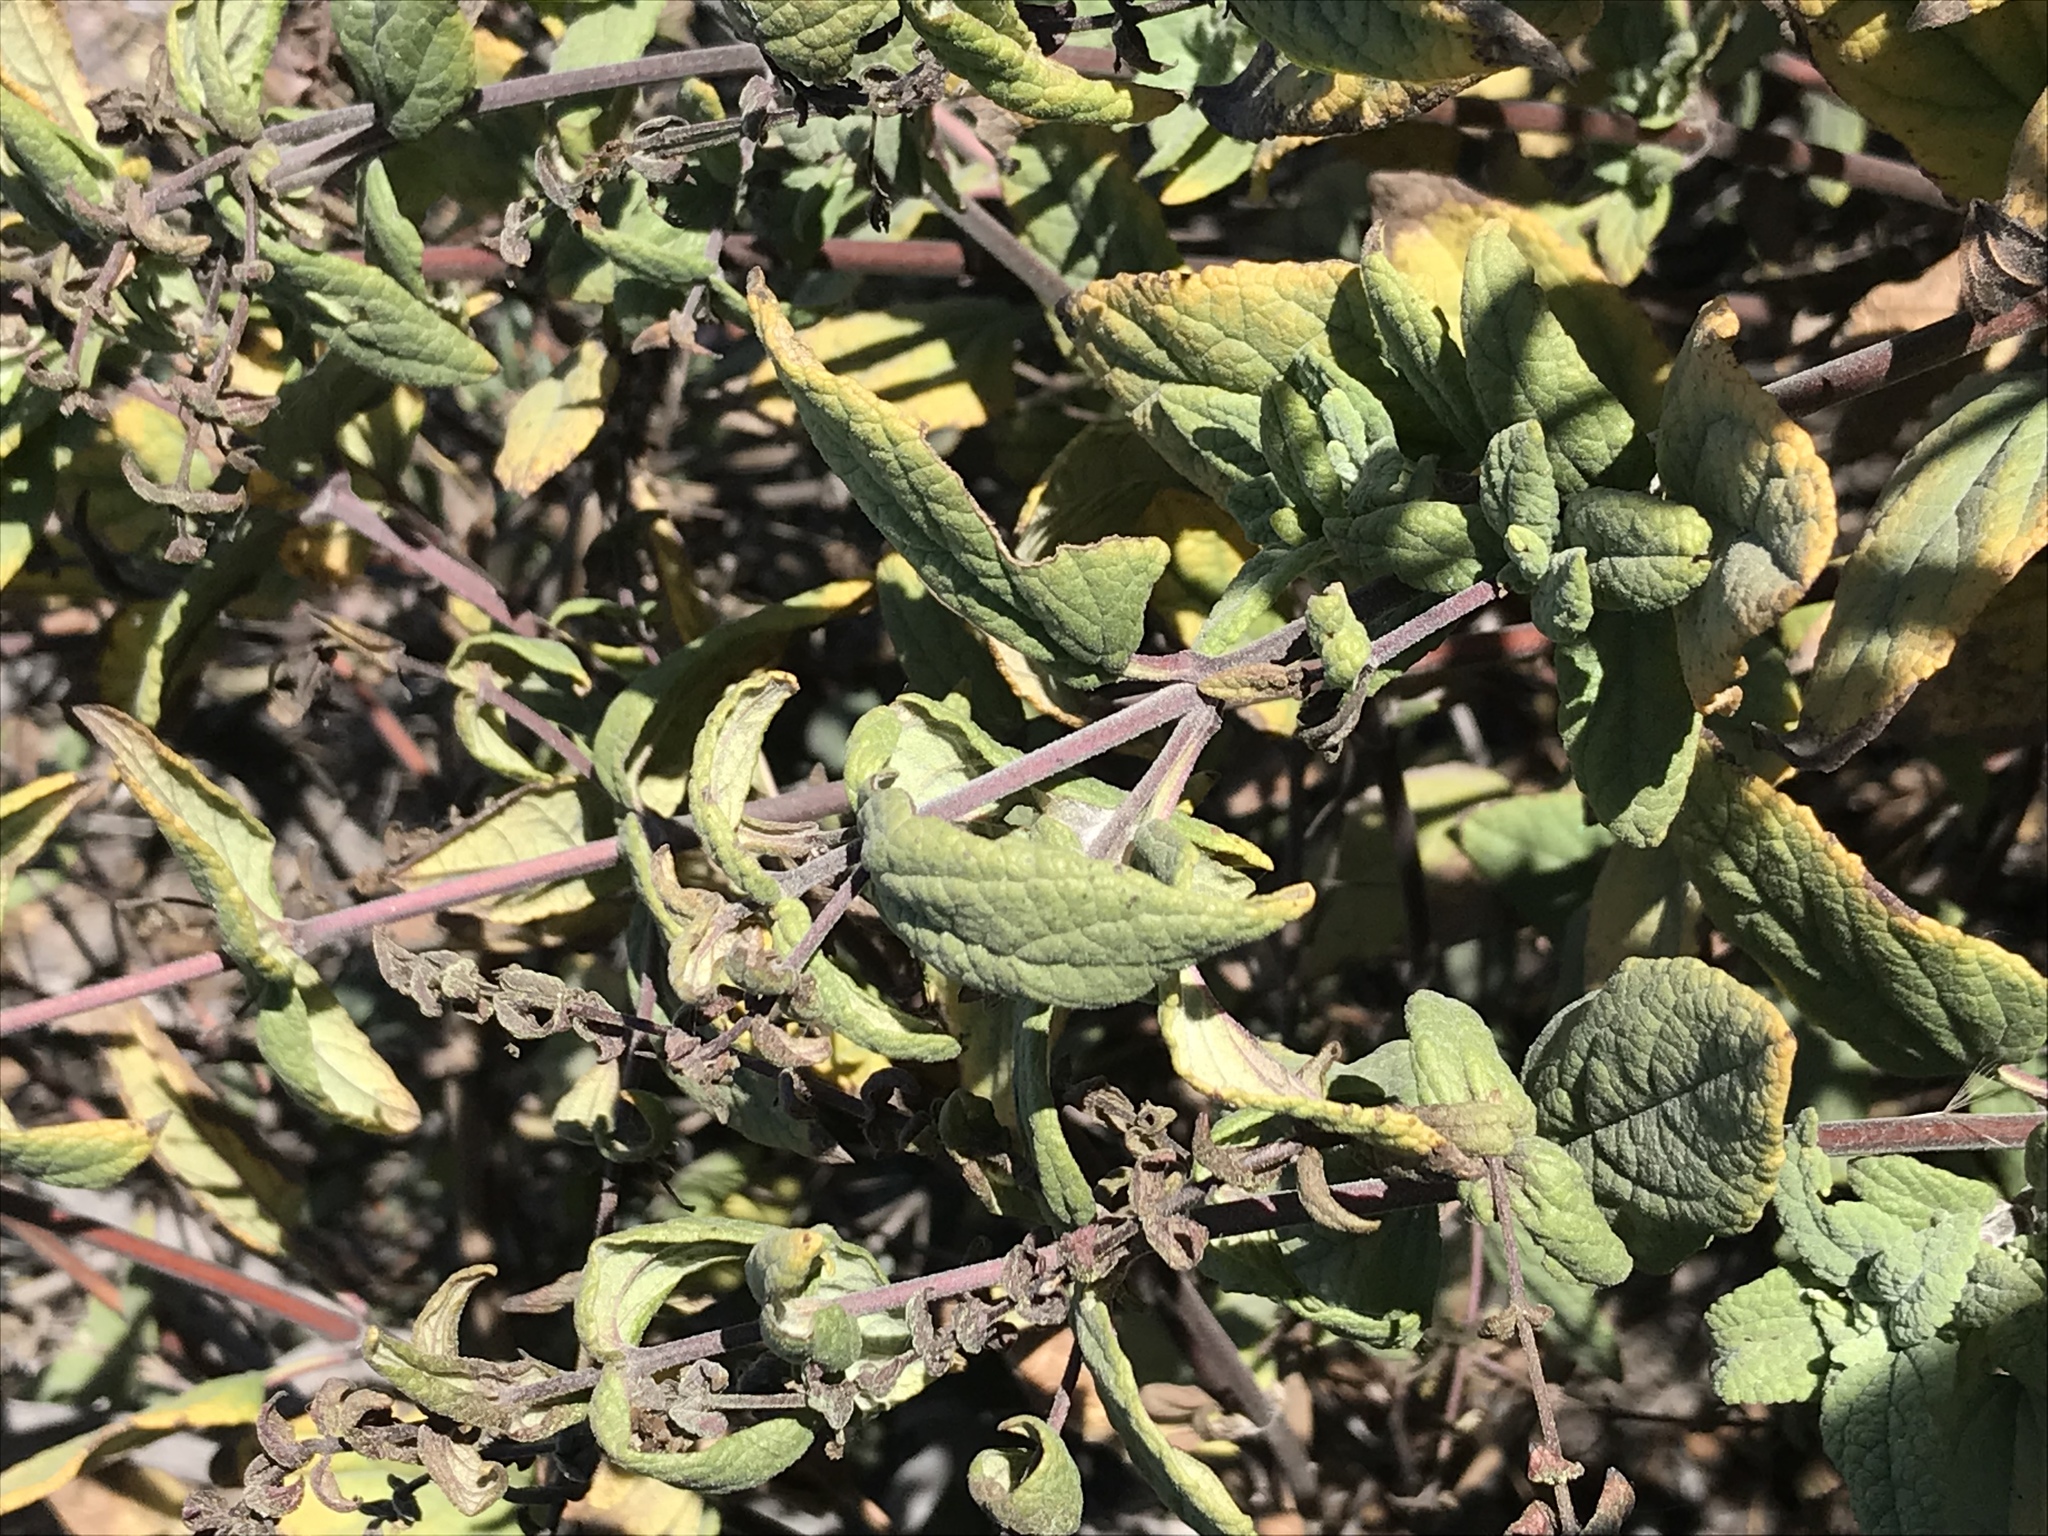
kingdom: Plantae
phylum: Tracheophyta
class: Magnoliopsida
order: Lamiales
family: Lamiaceae
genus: Lepechinia
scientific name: Lepechinia ganderi
